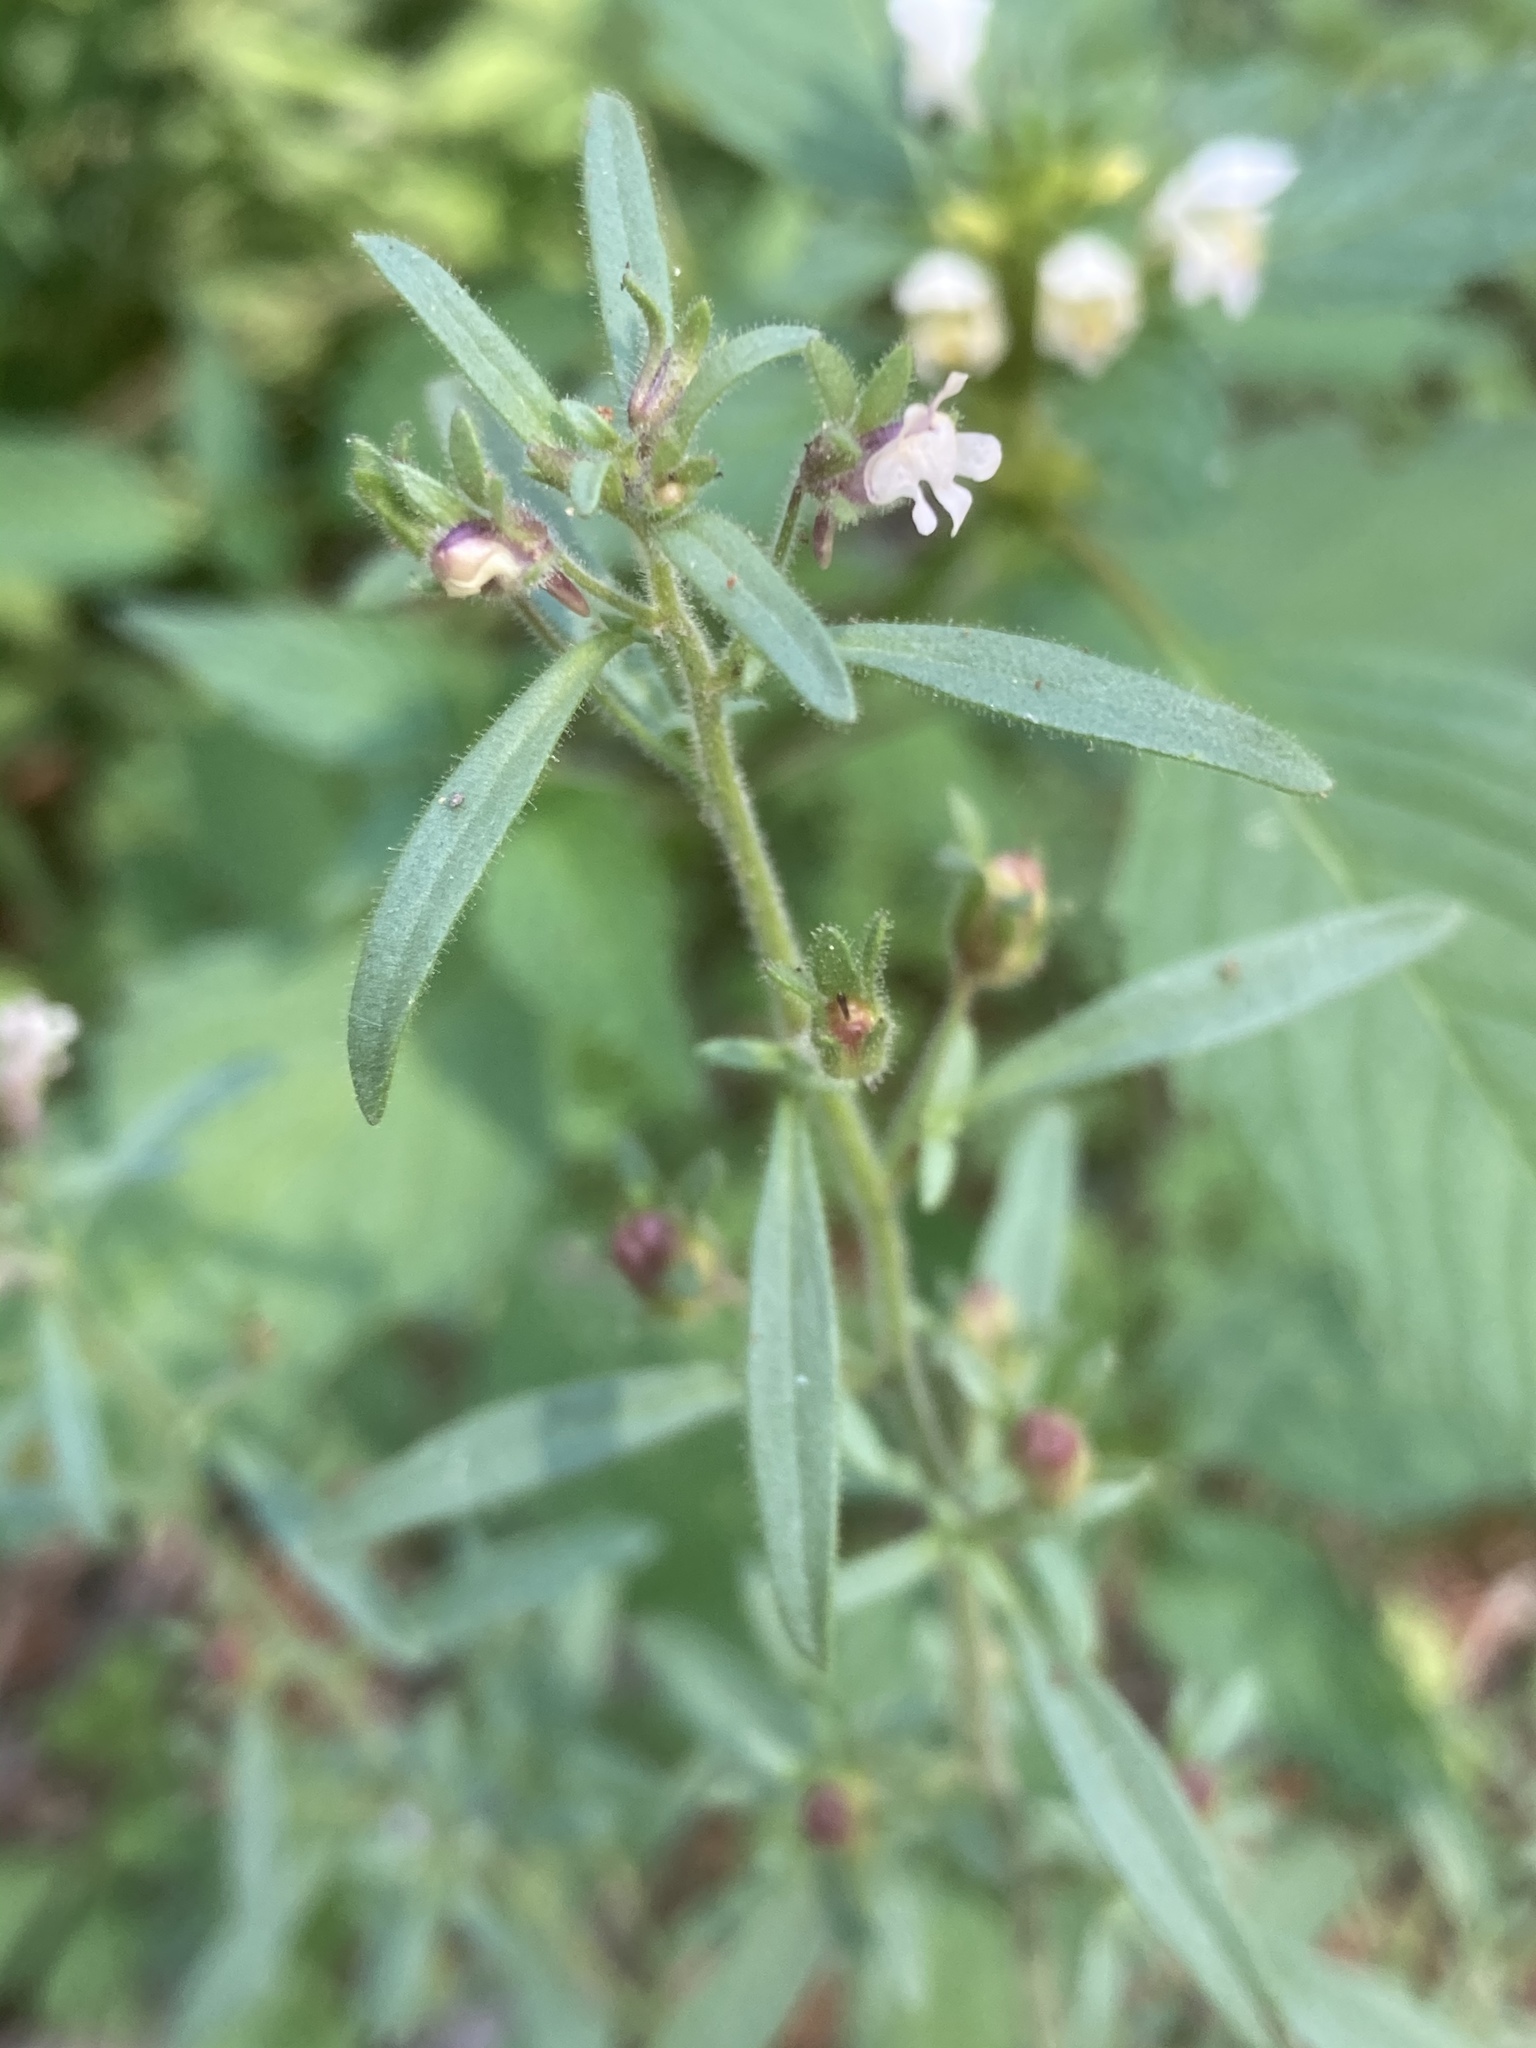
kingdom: Plantae
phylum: Tracheophyta
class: Magnoliopsida
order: Lamiales
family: Plantaginaceae
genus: Chaenorhinum
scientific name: Chaenorhinum minus
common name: Dwarf snapdragon
